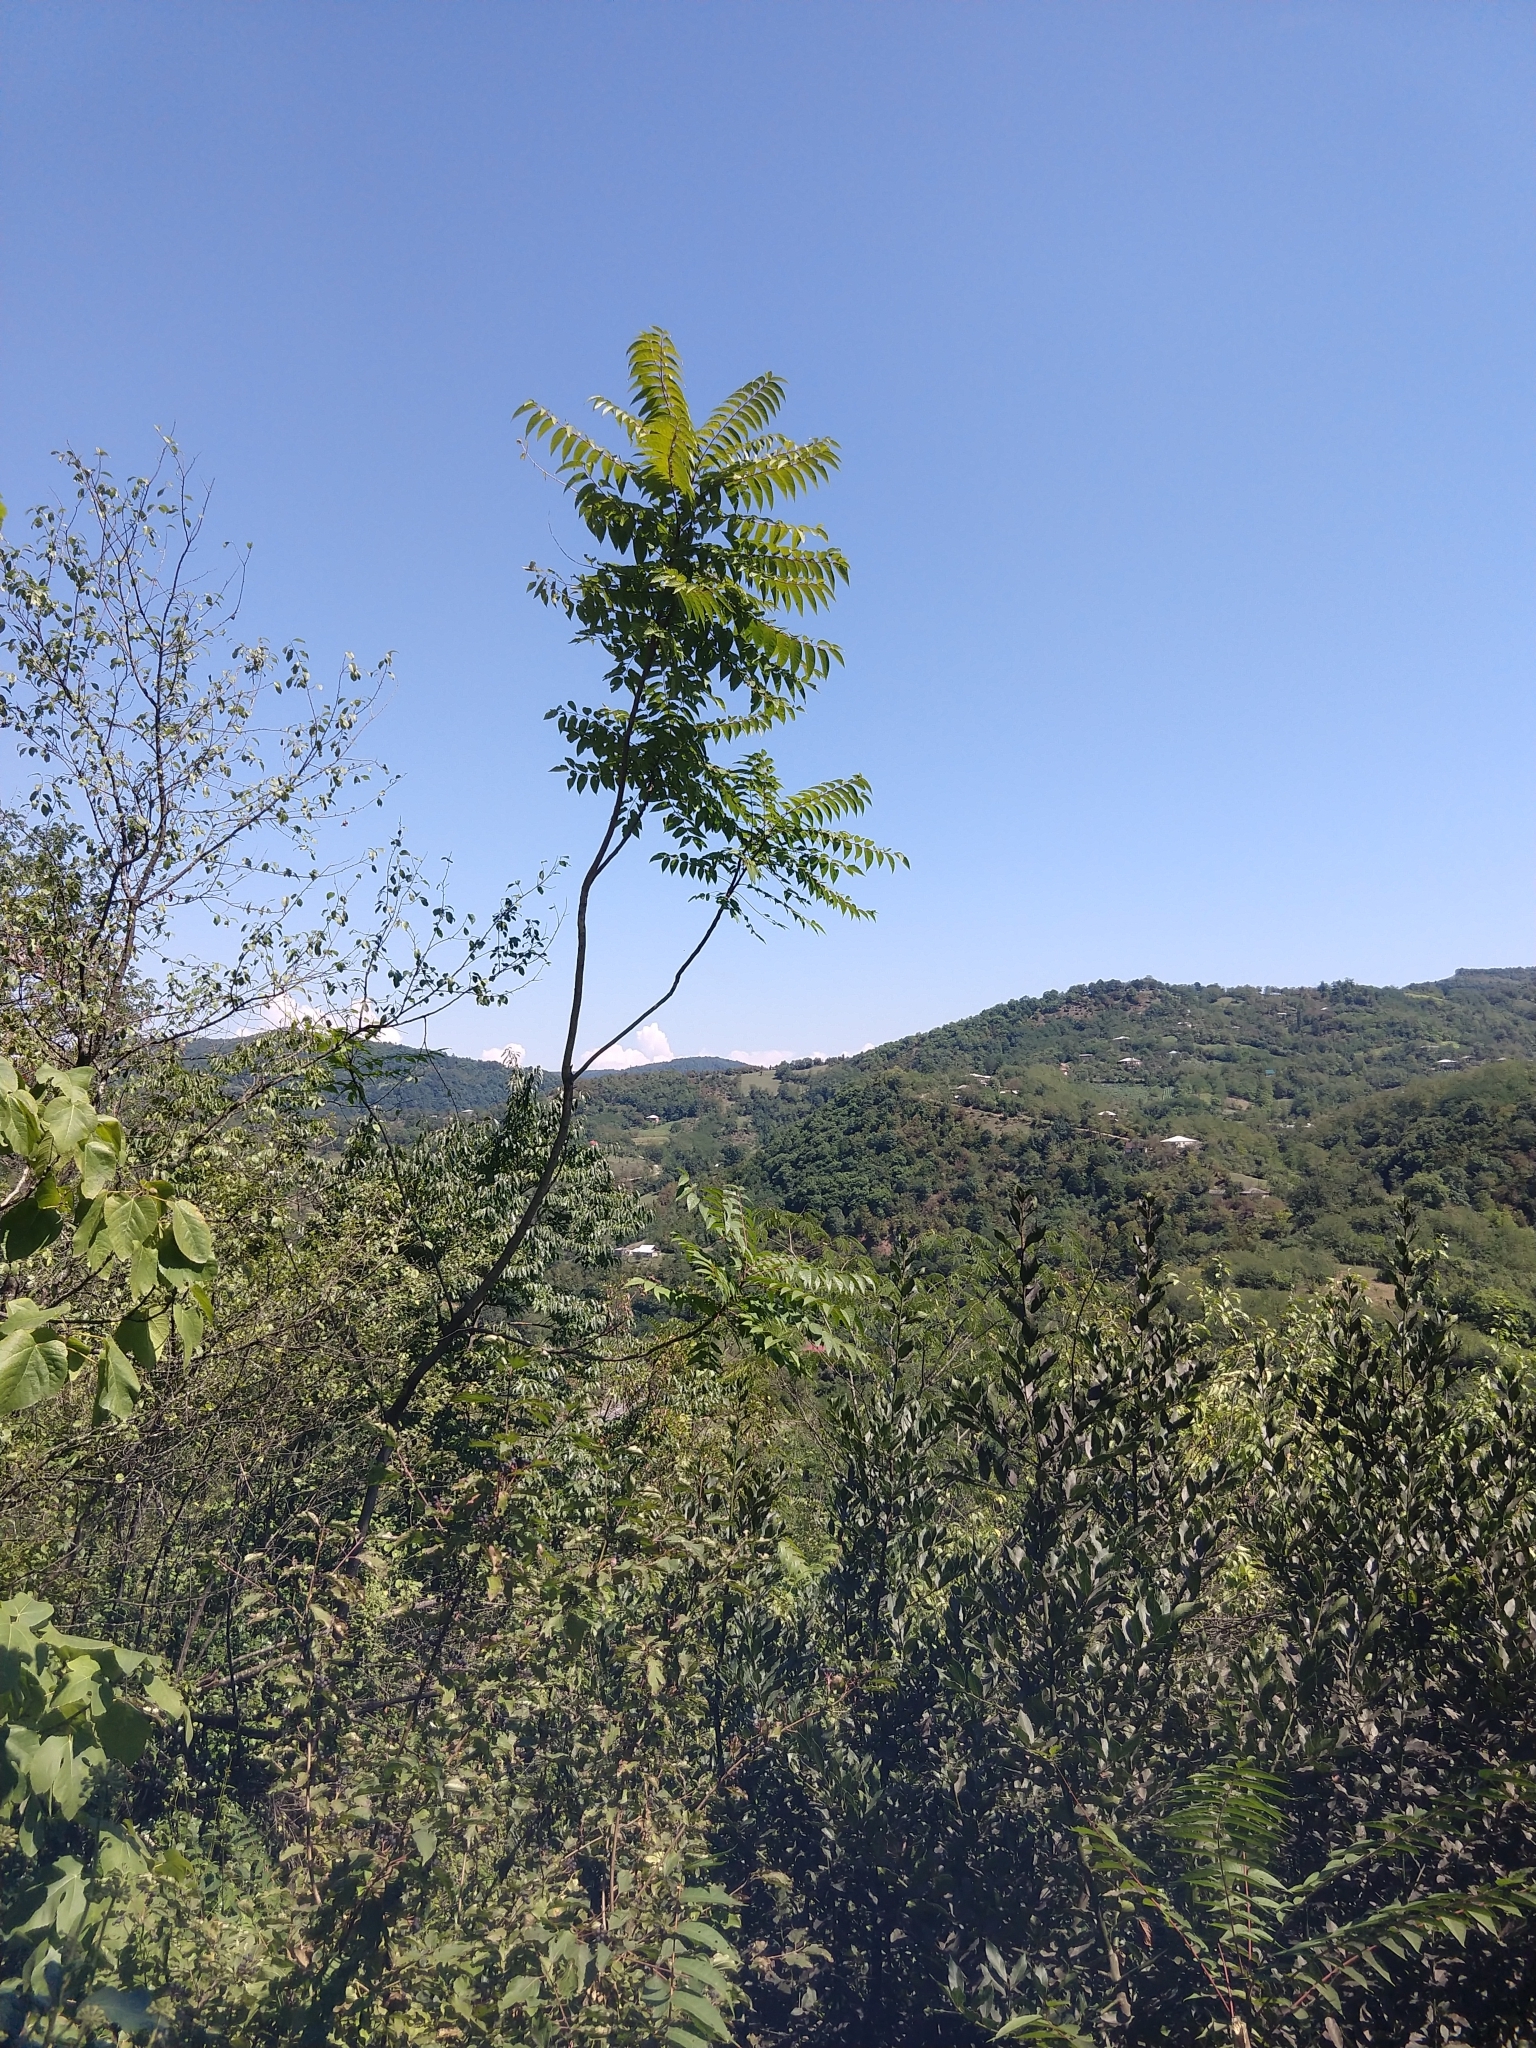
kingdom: Plantae
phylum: Tracheophyta
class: Magnoliopsida
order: Sapindales
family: Simaroubaceae
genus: Ailanthus
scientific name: Ailanthus altissima
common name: Tree-of-heaven
